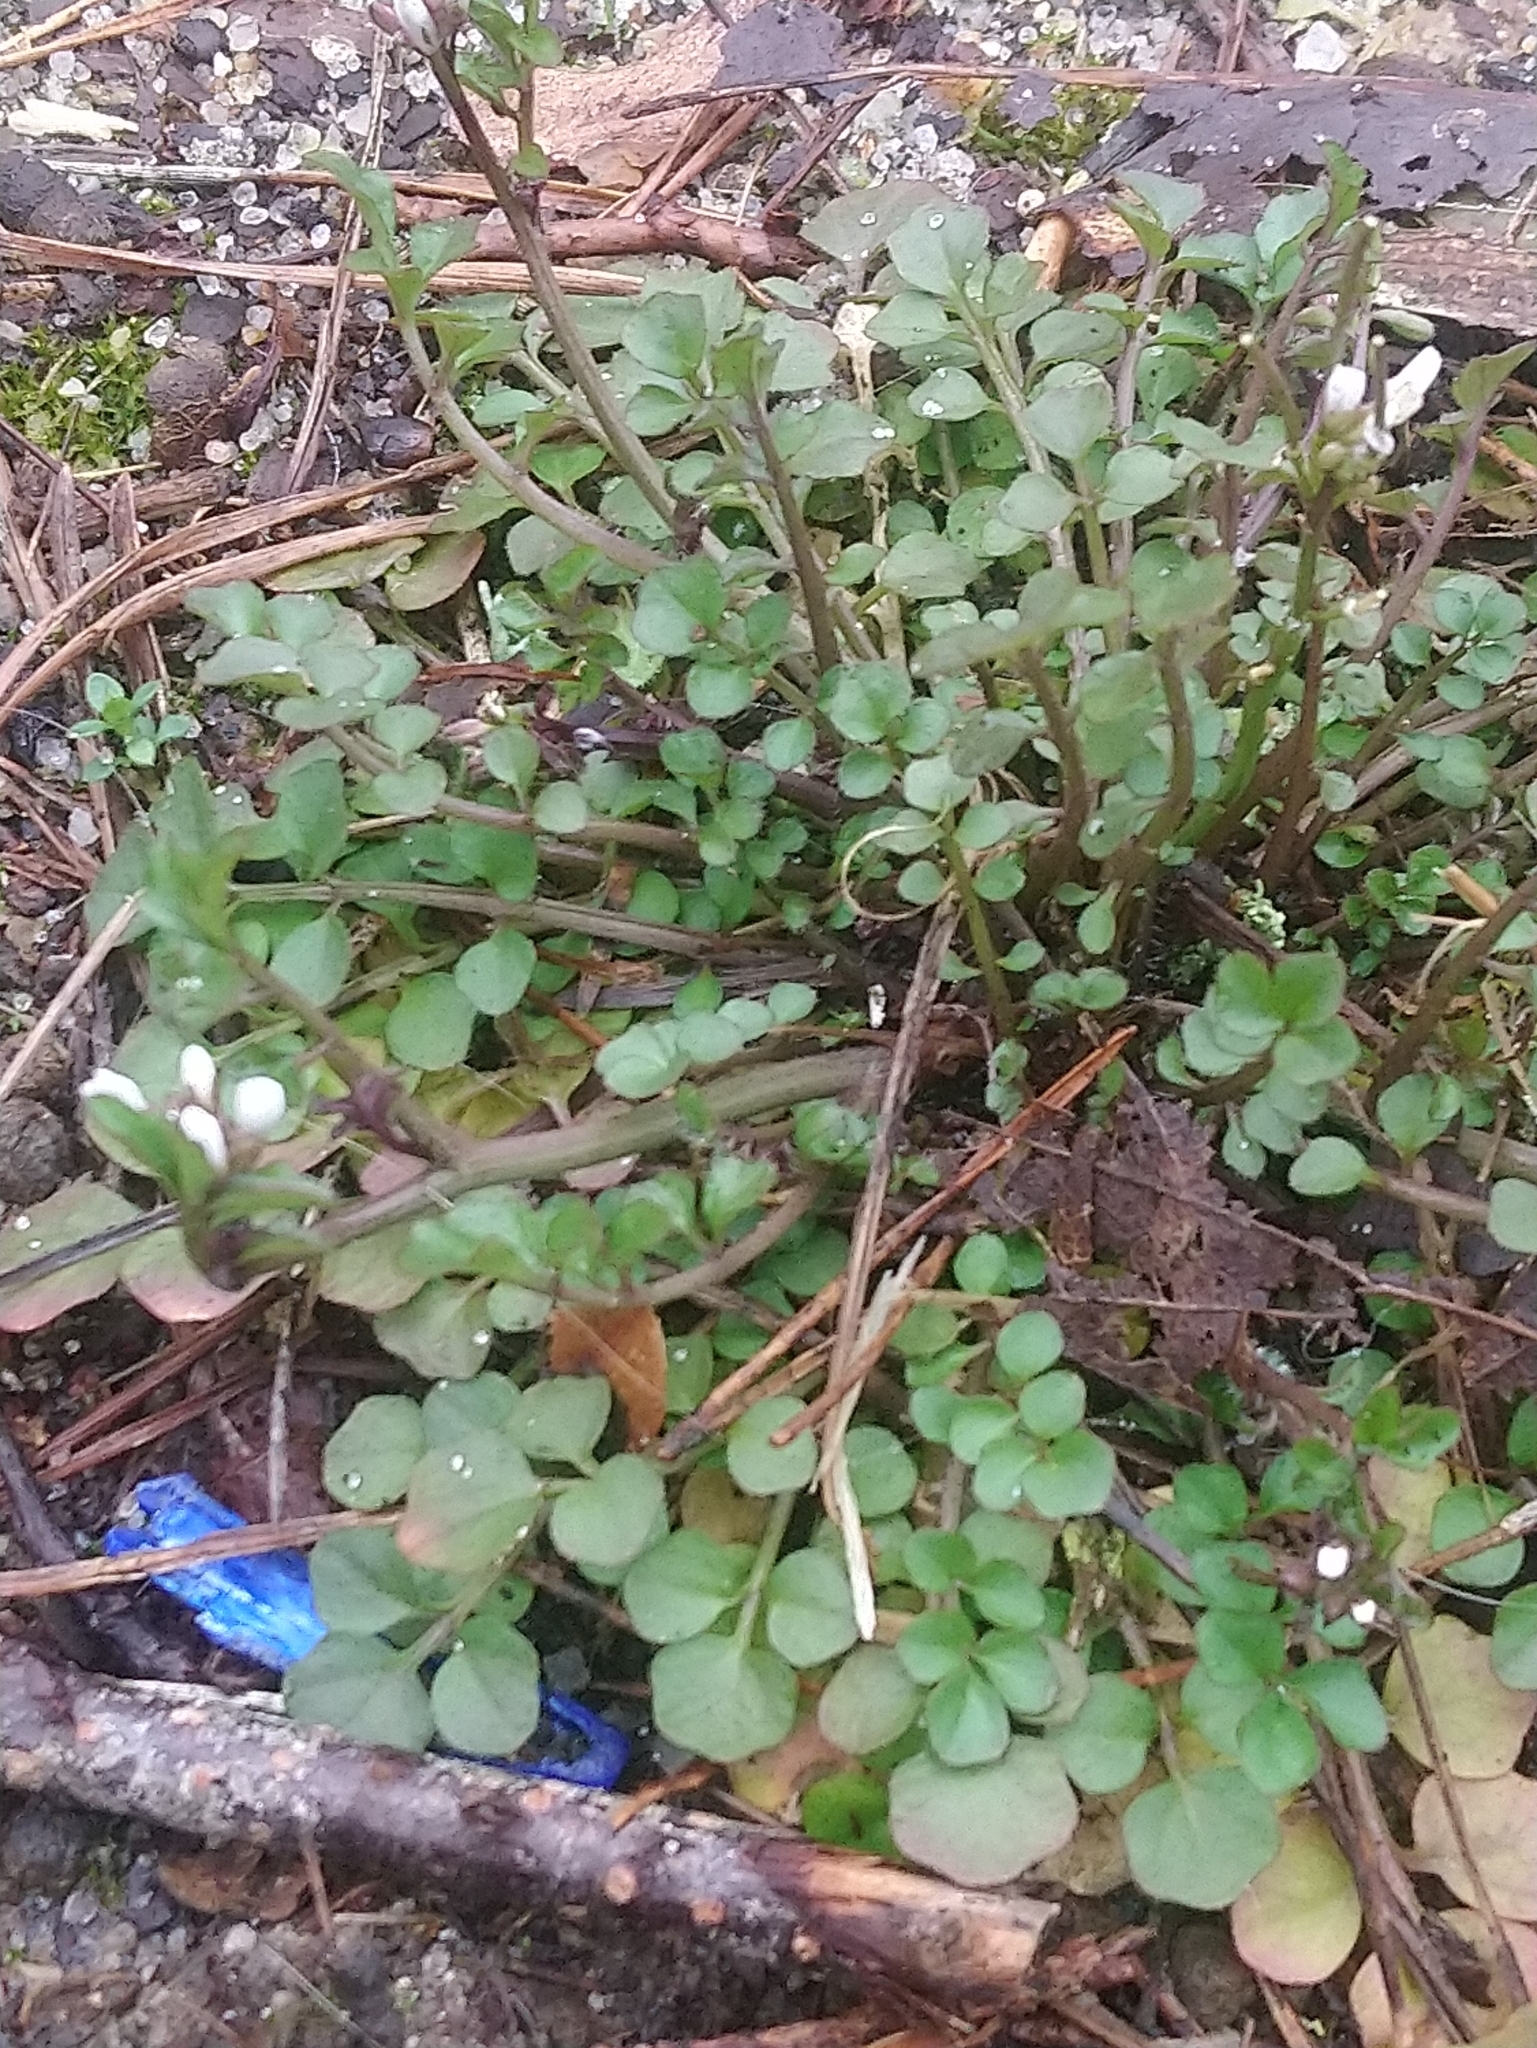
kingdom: Plantae
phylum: Tracheophyta
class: Magnoliopsida
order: Brassicales
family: Brassicaceae
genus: Cardamine
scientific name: Cardamine hirsuta
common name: Hairy bittercress
